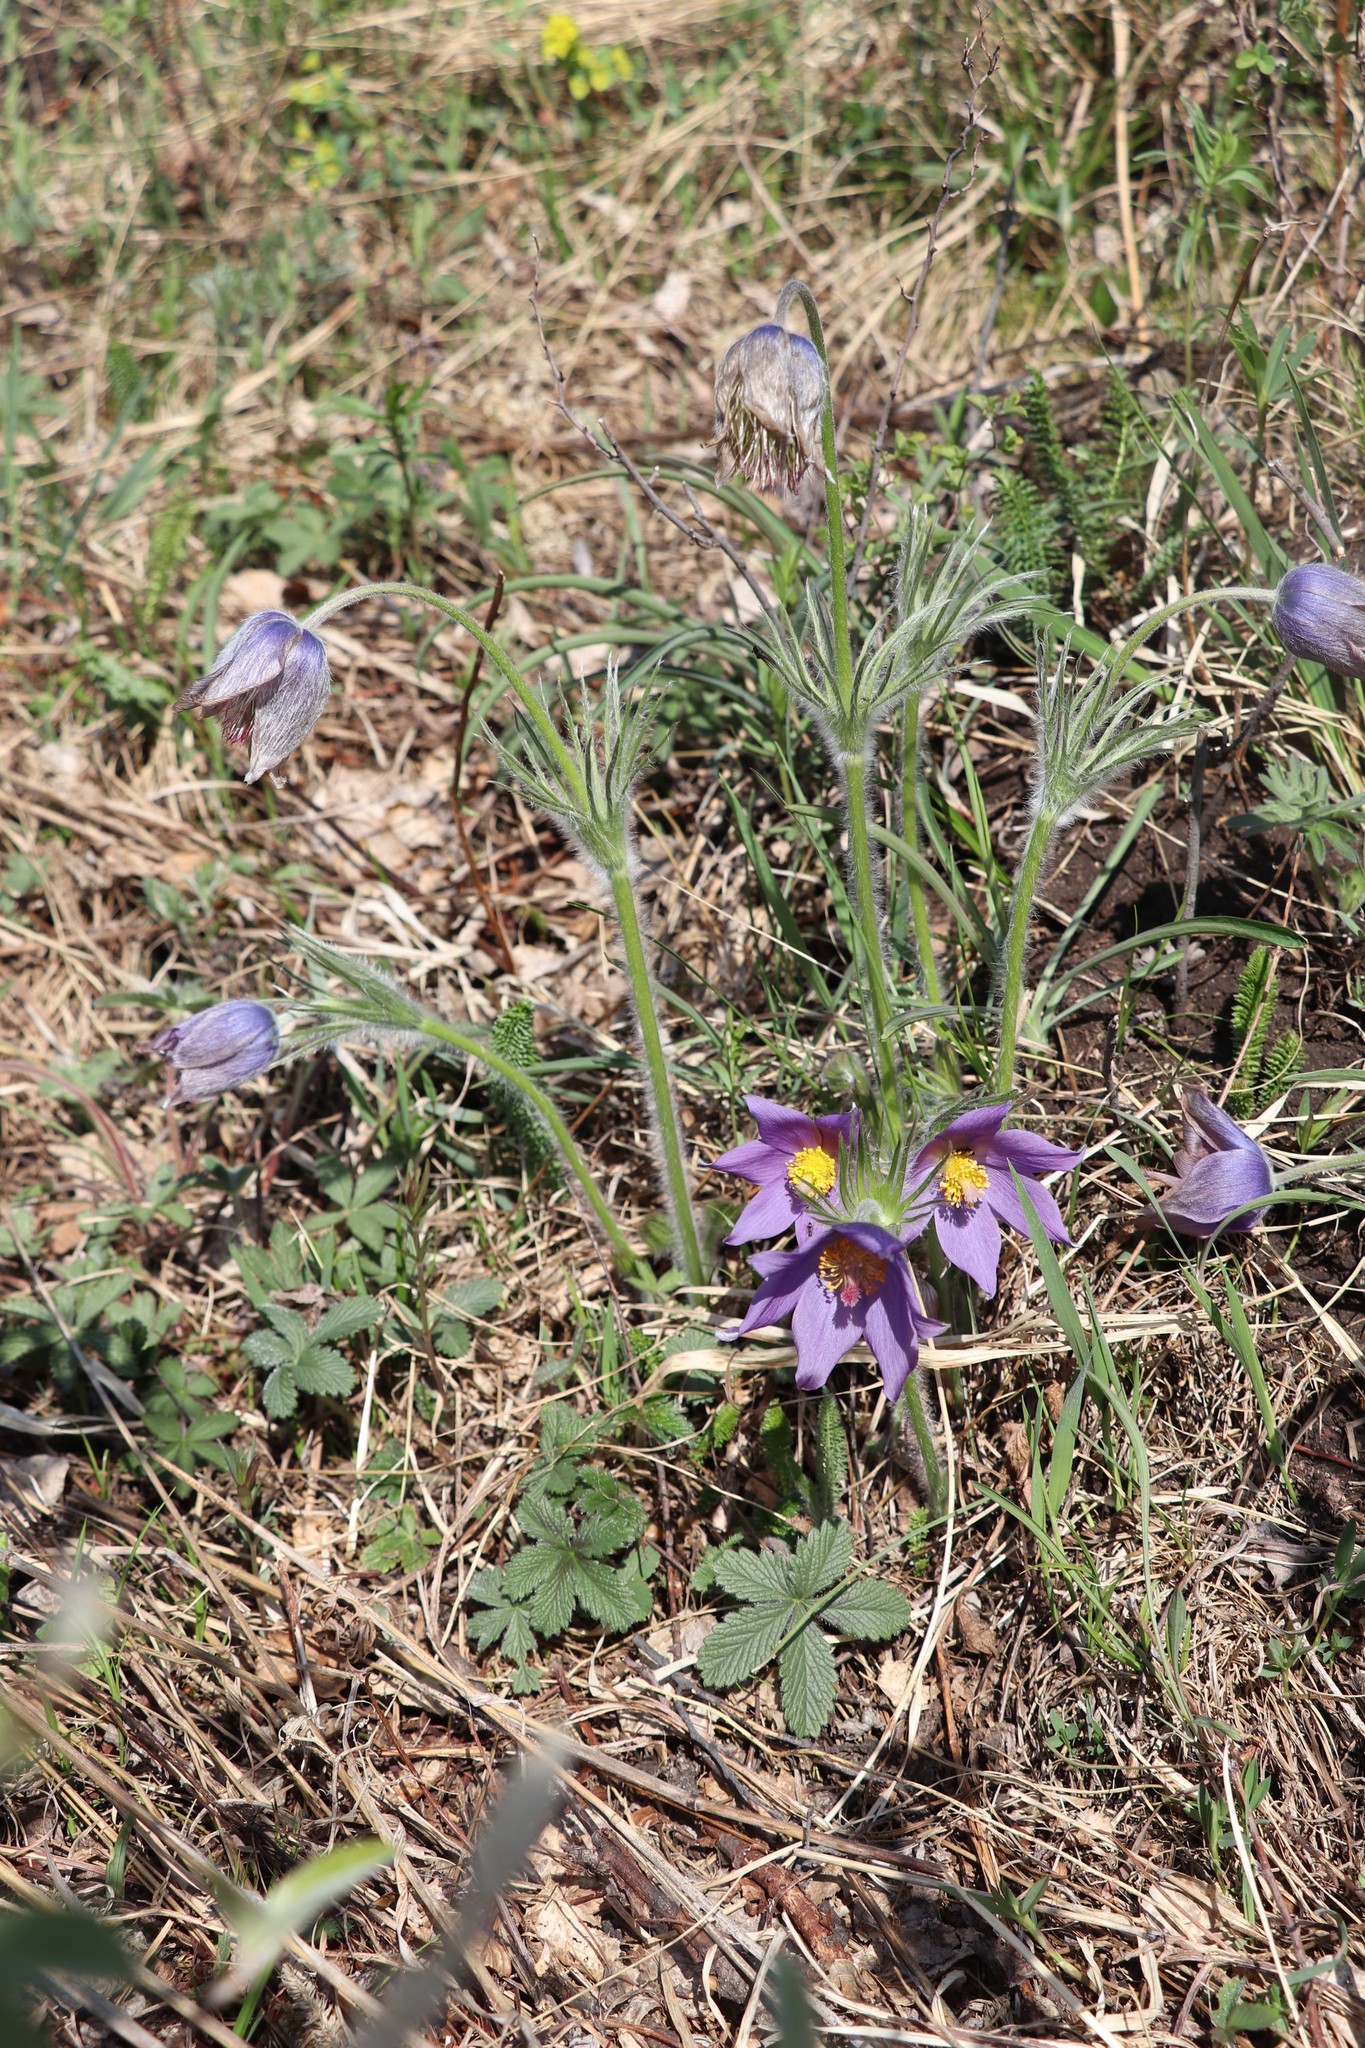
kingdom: Plantae
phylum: Tracheophyta
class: Magnoliopsida
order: Ranunculales
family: Ranunculaceae
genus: Pulsatilla
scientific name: Pulsatilla patens
